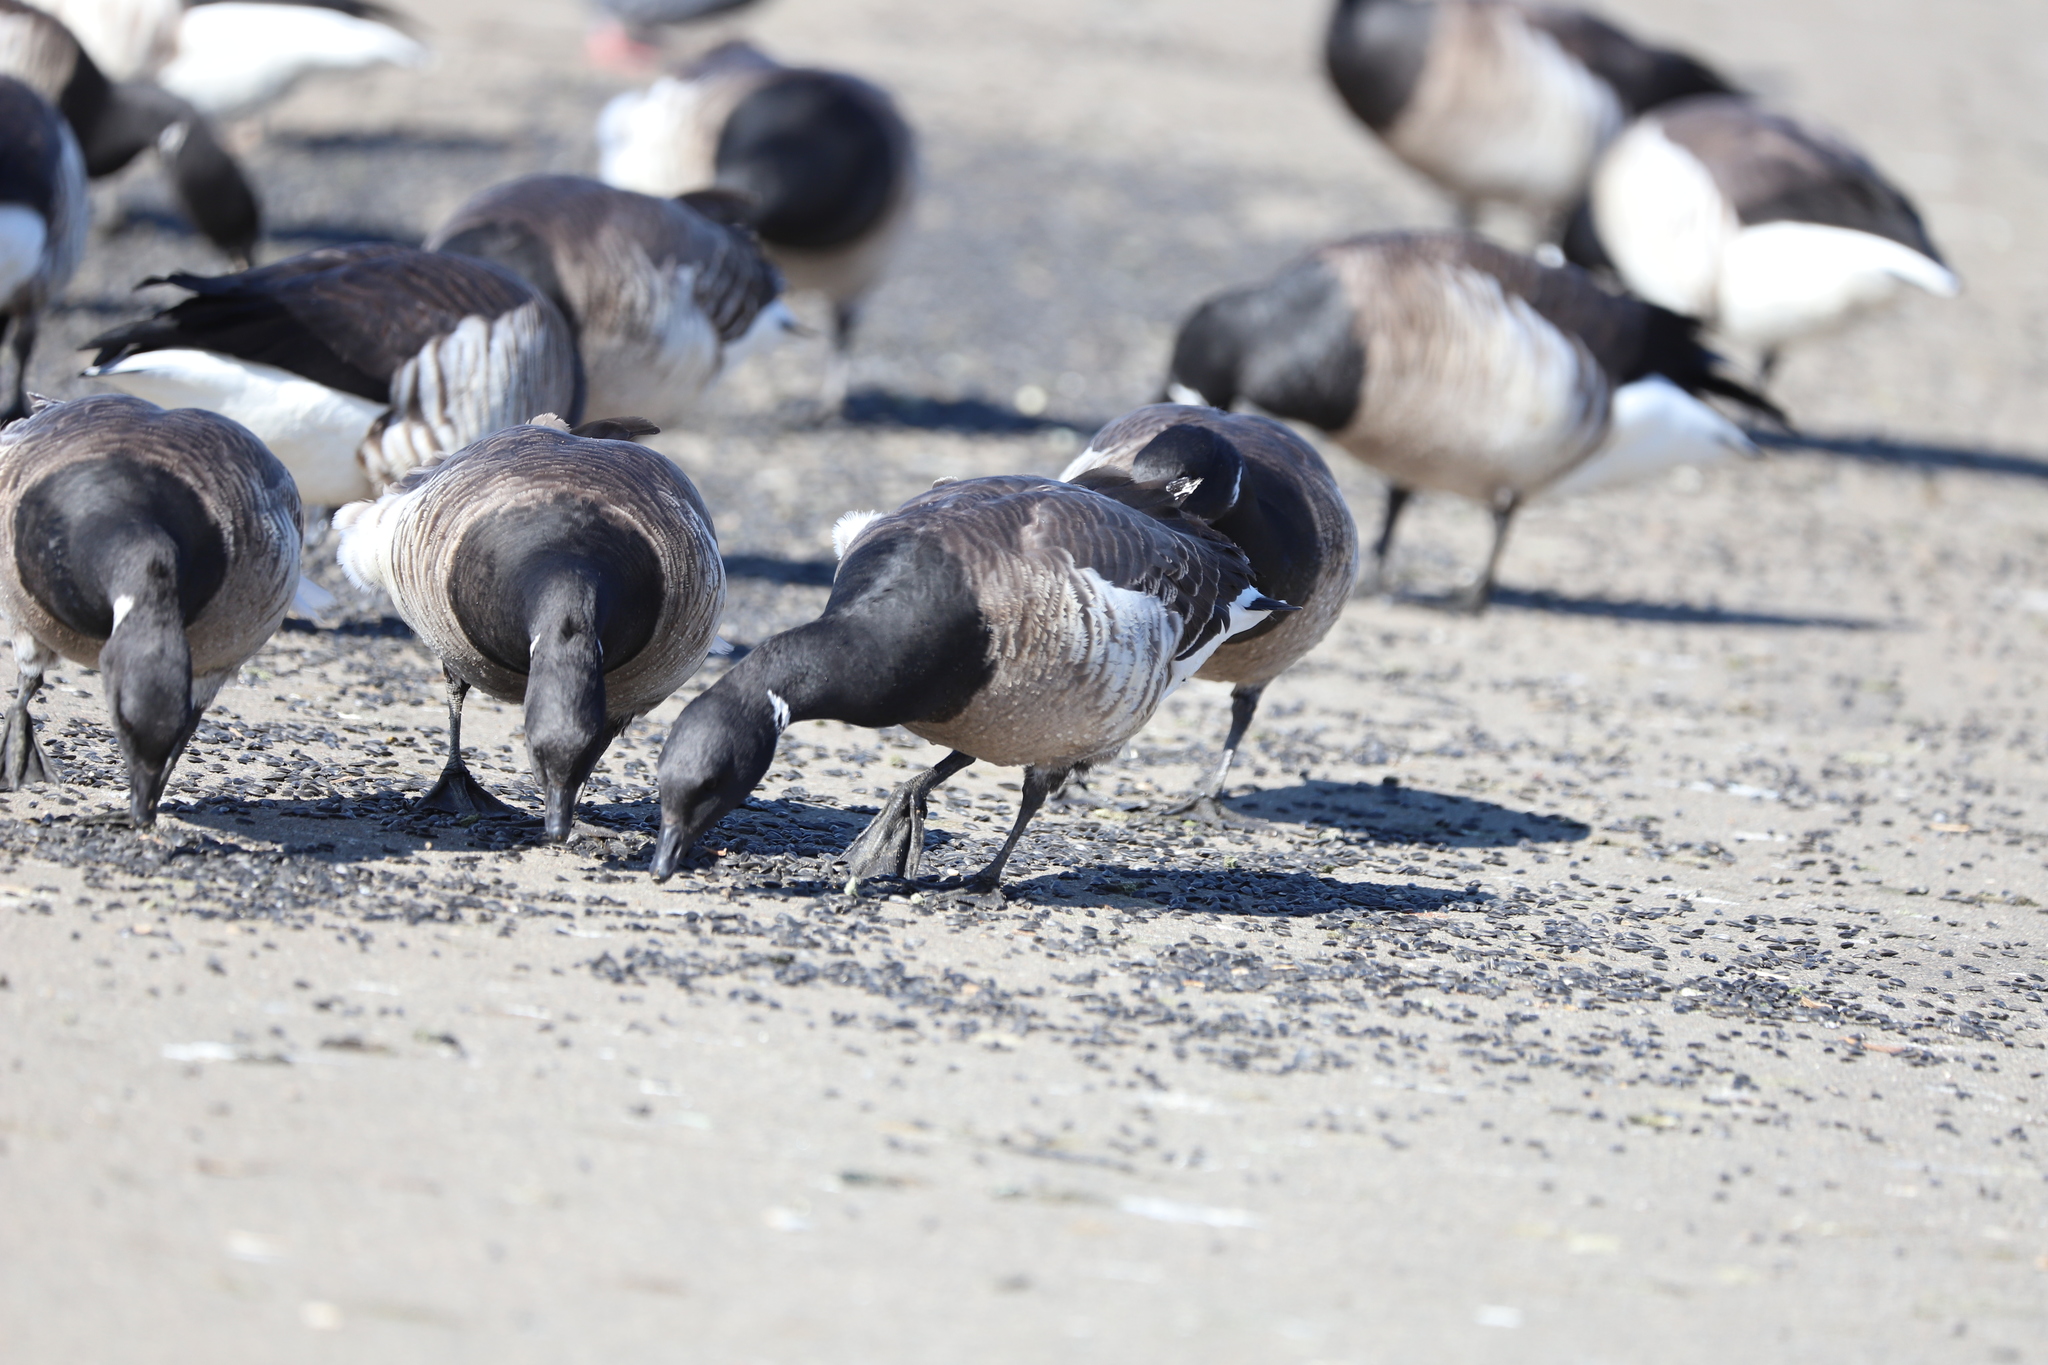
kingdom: Animalia
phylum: Chordata
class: Aves
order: Anseriformes
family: Anatidae
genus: Branta
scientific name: Branta bernicla
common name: Brant goose
